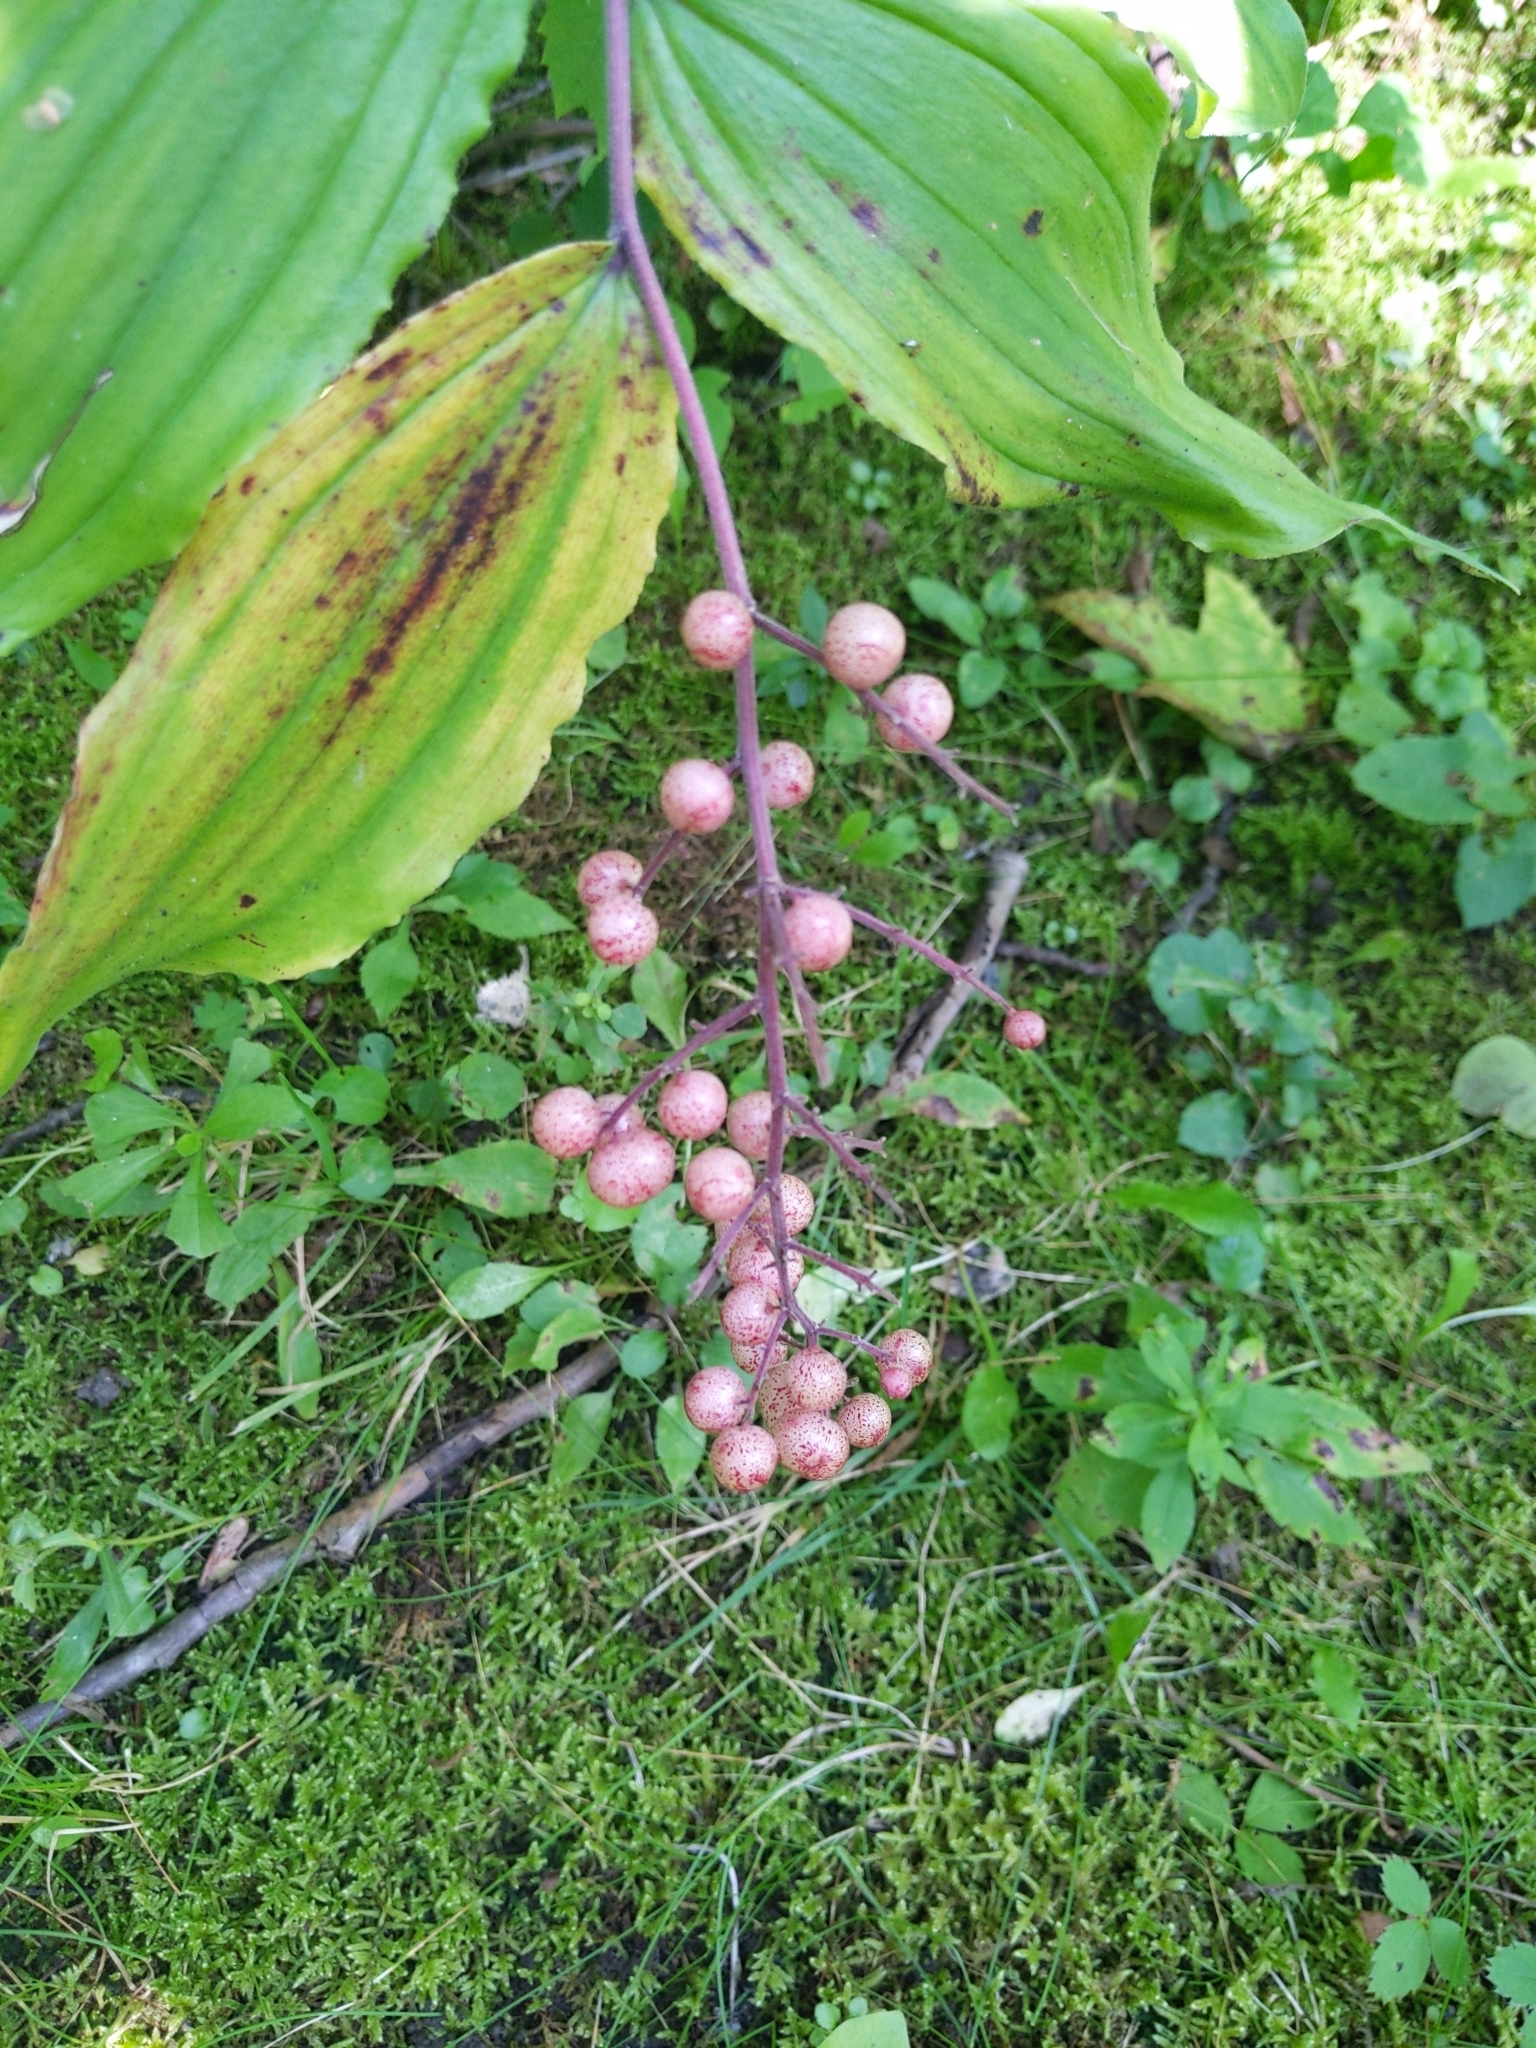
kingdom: Plantae
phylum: Tracheophyta
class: Liliopsida
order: Asparagales
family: Asparagaceae
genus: Maianthemum
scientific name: Maianthemum racemosum
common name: False spikenard
